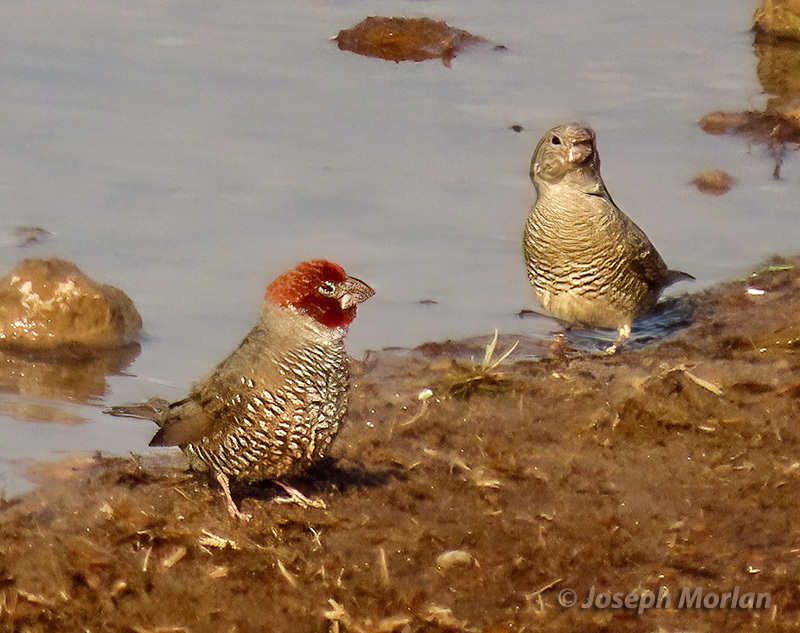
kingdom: Animalia
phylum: Chordata
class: Aves
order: Passeriformes
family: Estrildidae
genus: Amadina
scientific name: Amadina erythrocephala
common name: Red-headed finch
